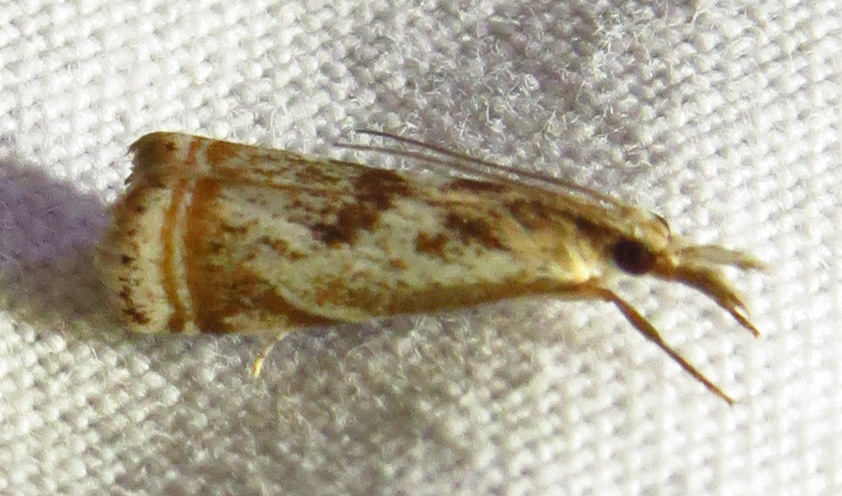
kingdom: Animalia
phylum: Arthropoda
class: Insecta
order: Lepidoptera
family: Crambidae
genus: Microcrambus
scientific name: Microcrambus elegans
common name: Elegant grass-veneer
